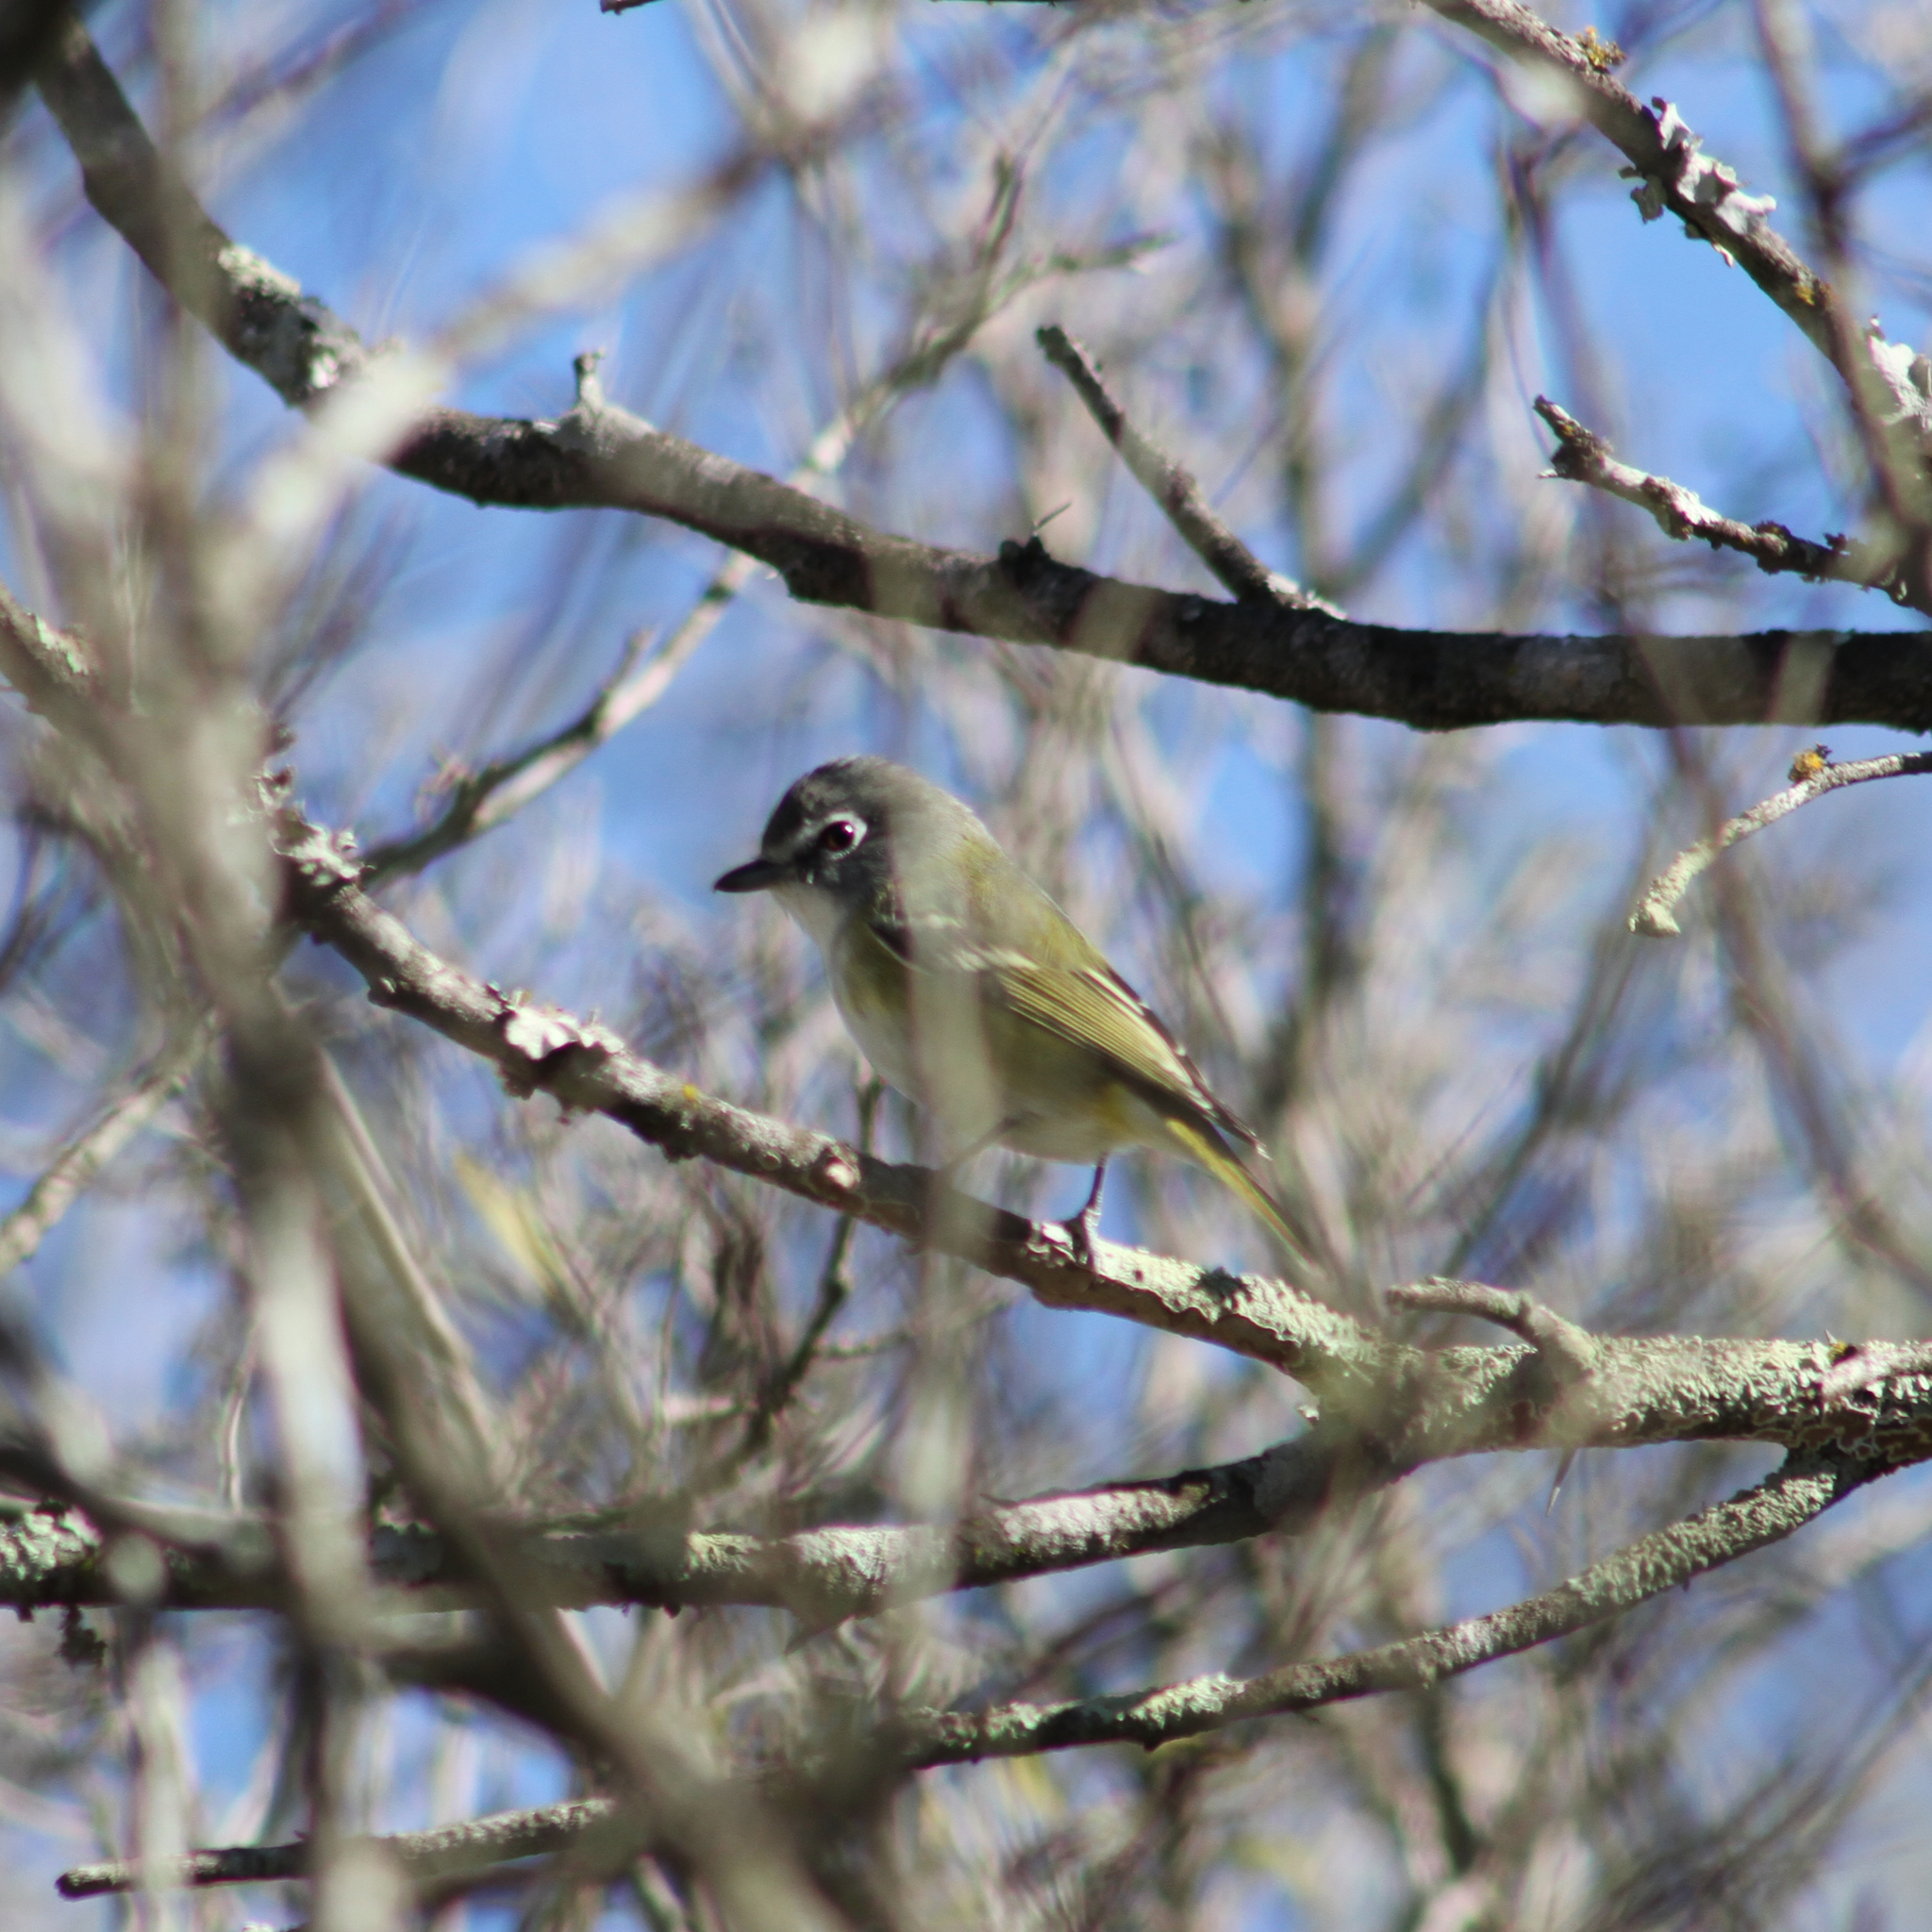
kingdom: Animalia
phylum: Chordata
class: Aves
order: Passeriformes
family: Vireonidae
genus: Vireo
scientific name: Vireo solitarius
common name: Blue-headed vireo
